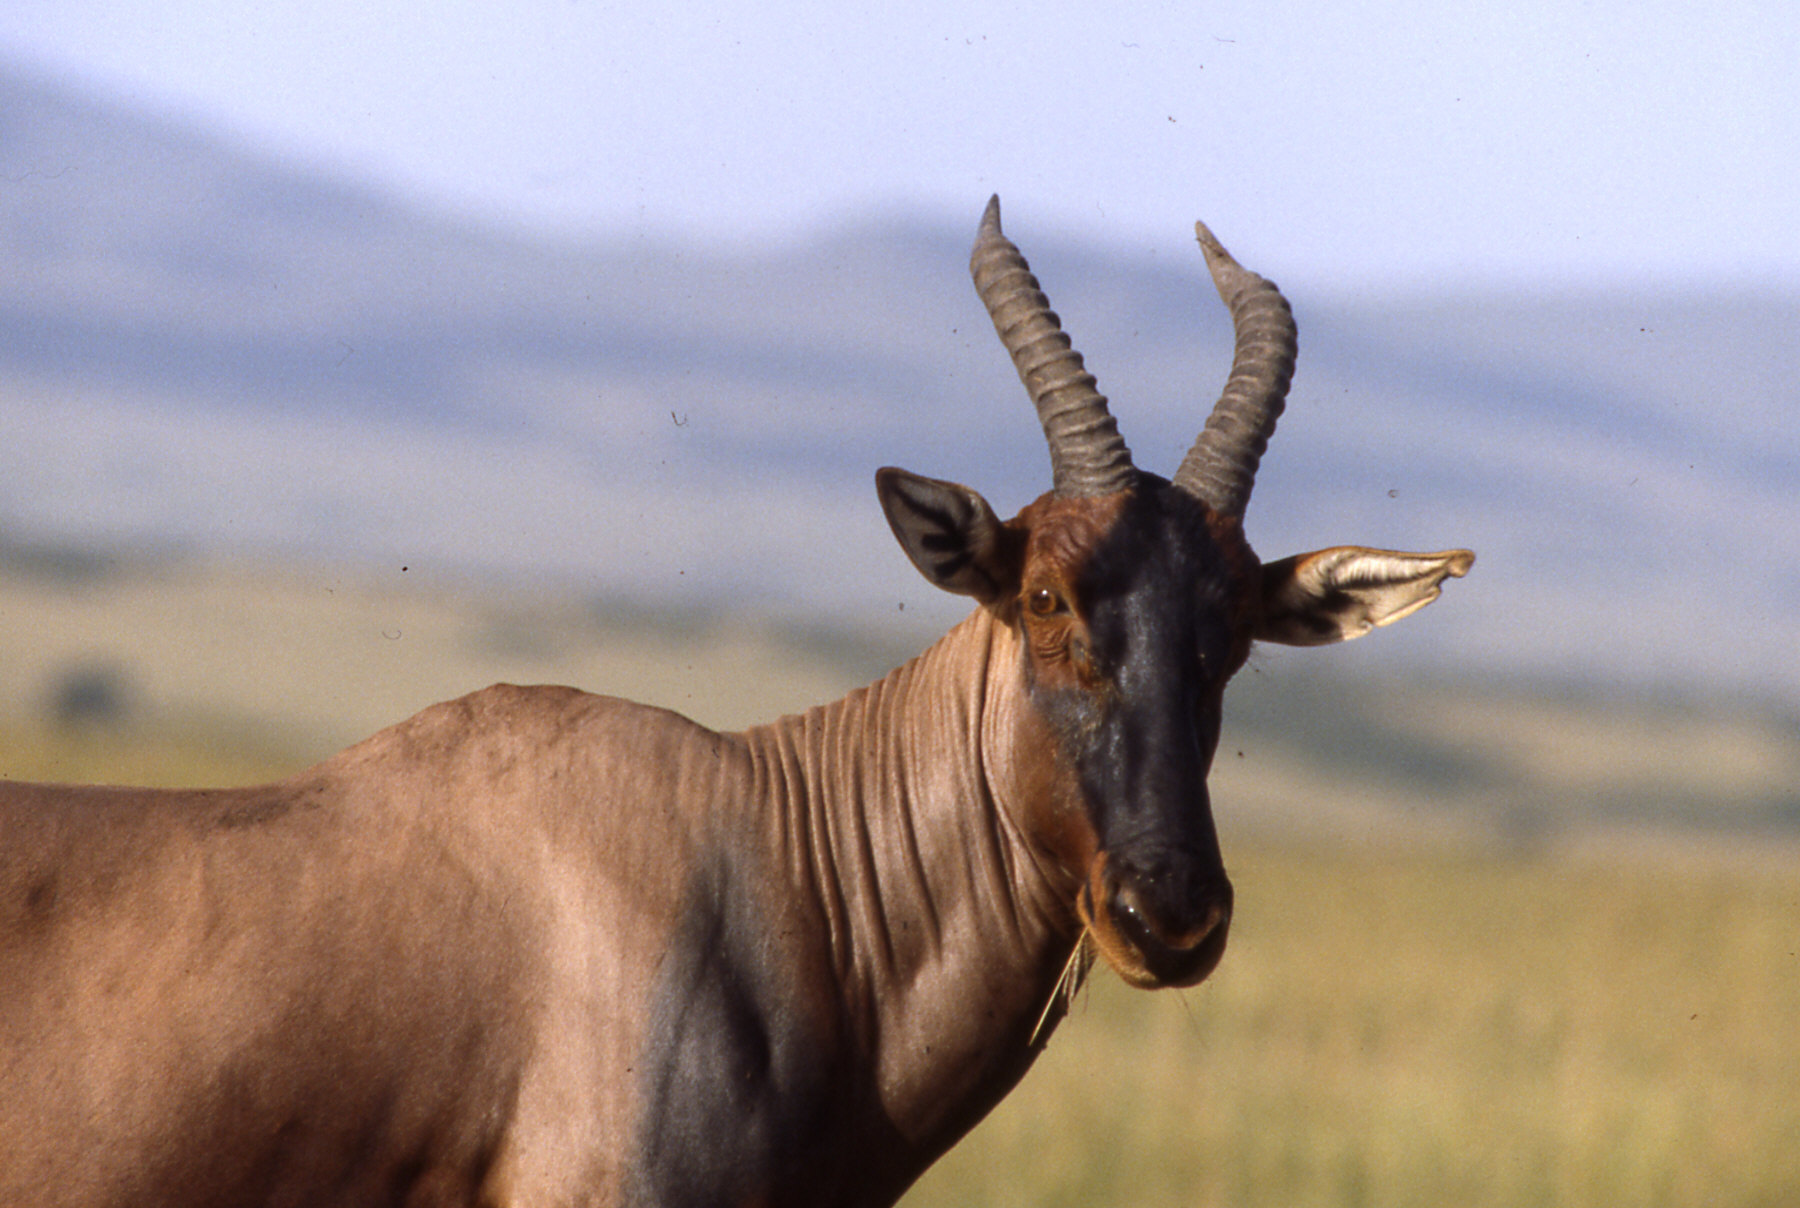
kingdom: Animalia
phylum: Chordata
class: Mammalia
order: Artiodactyla
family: Bovidae
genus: Damaliscus
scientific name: Damaliscus korrigum
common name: Topi
